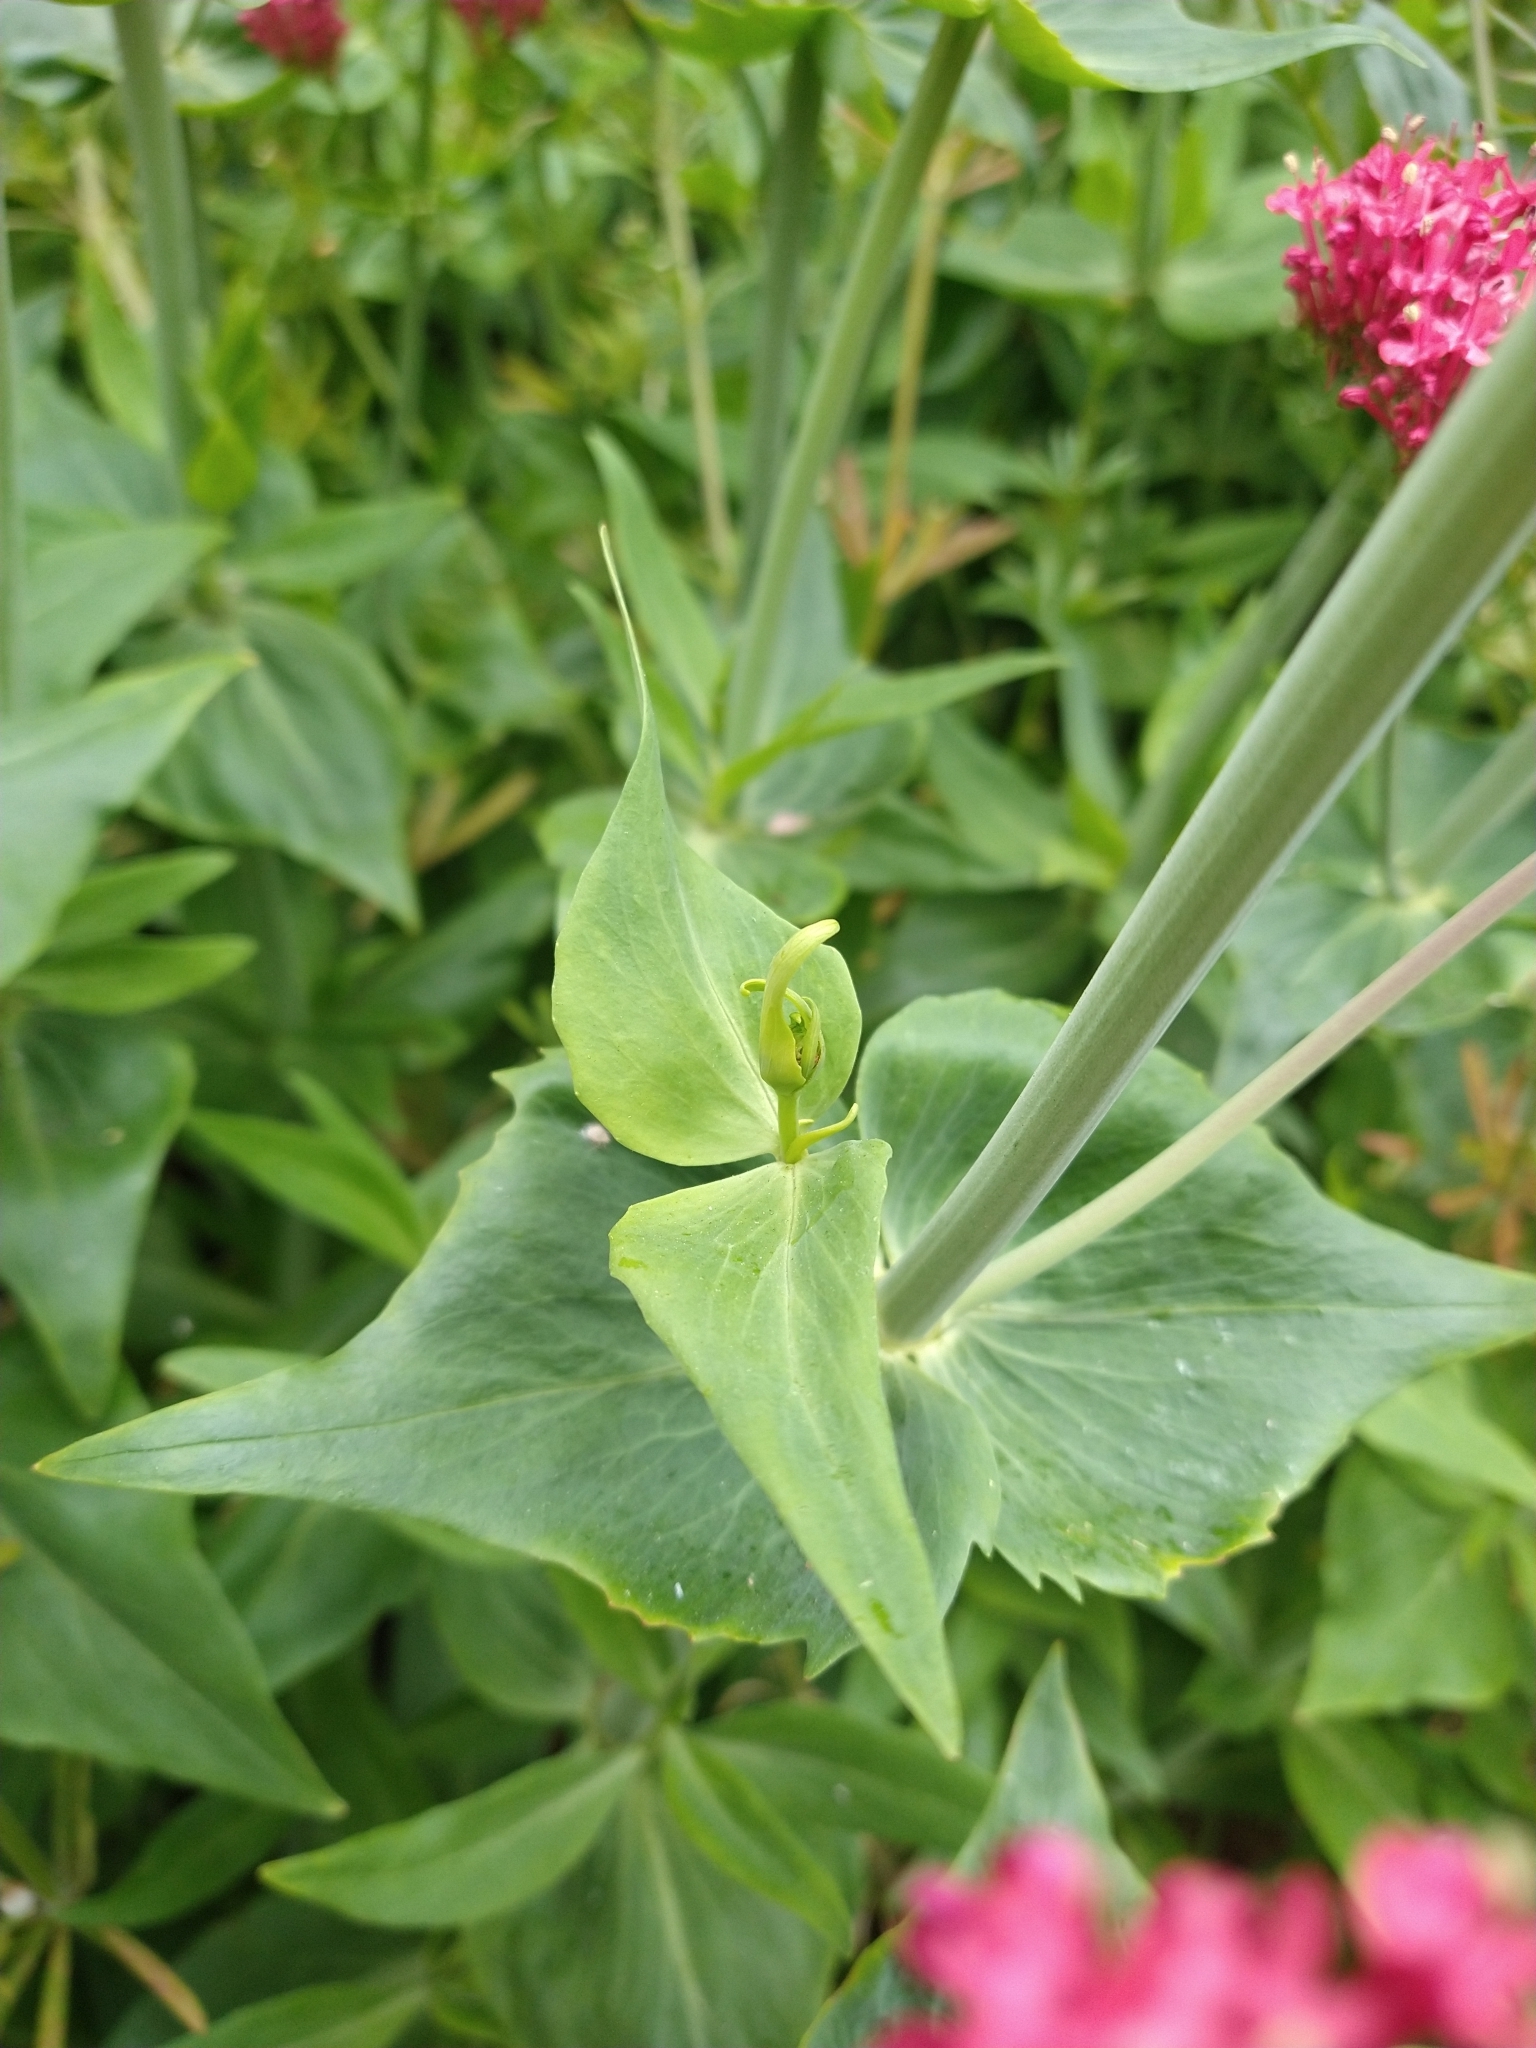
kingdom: Plantae
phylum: Tracheophyta
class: Magnoliopsida
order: Dipsacales
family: Caprifoliaceae
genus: Centranthus
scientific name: Centranthus ruber
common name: Red valerian
